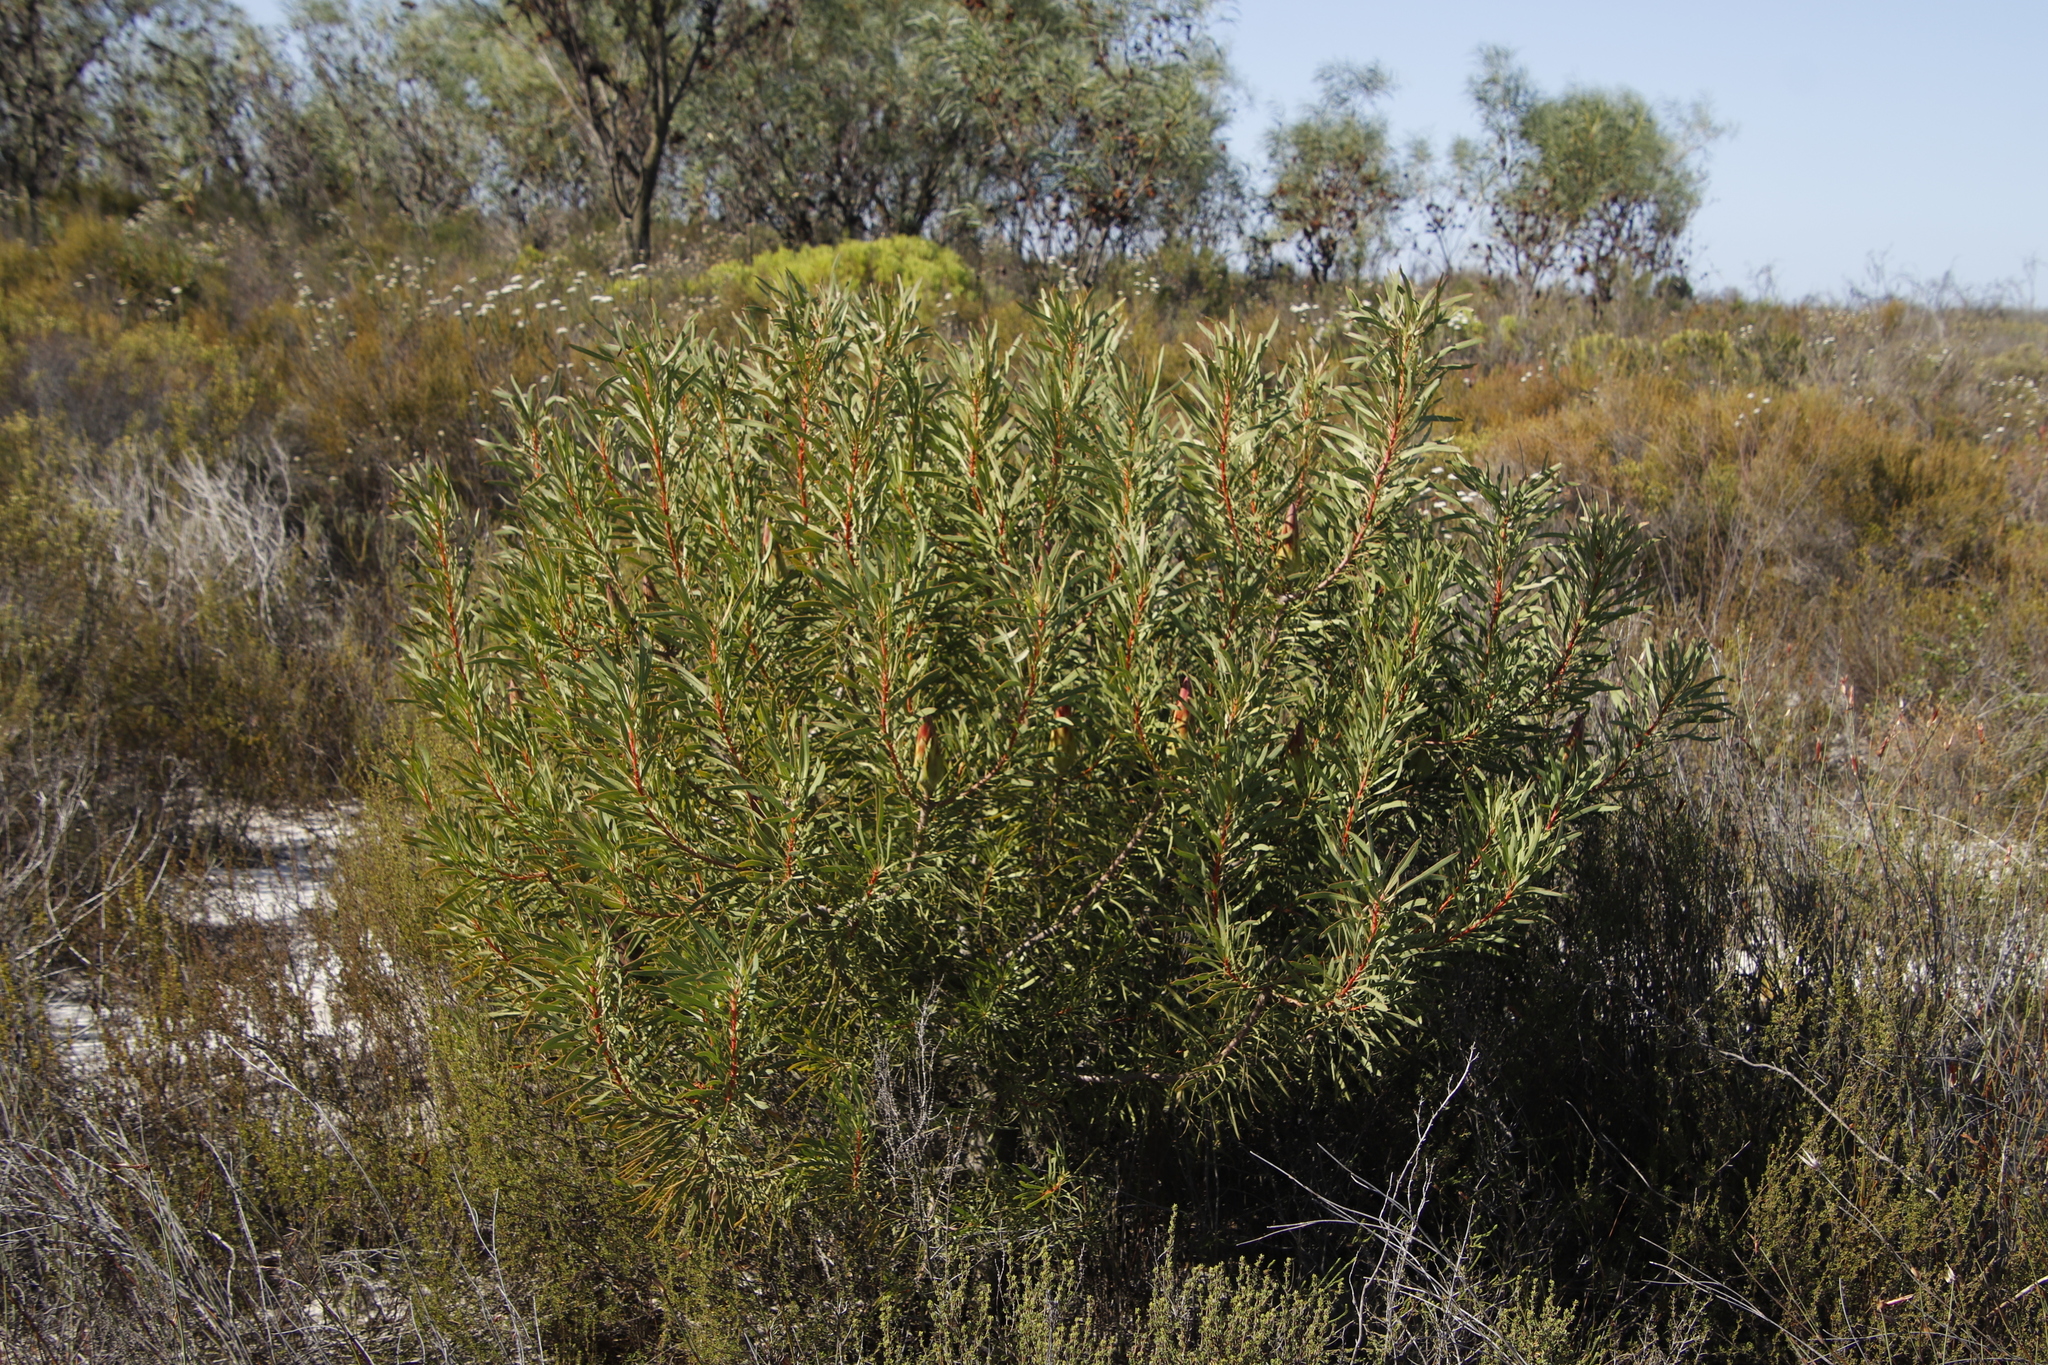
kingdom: Plantae
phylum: Tracheophyta
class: Magnoliopsida
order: Proteales
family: Proteaceae
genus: Protea
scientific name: Protea repens
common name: Sugarbush
